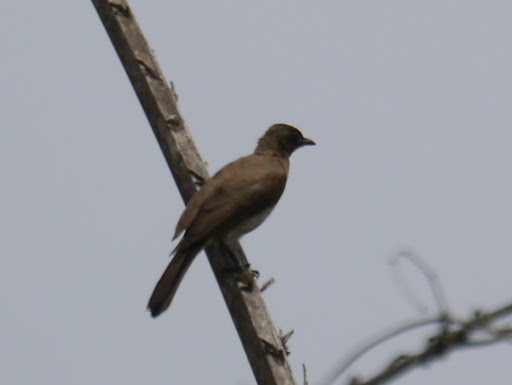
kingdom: Animalia
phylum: Chordata
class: Aves
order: Passeriformes
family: Pycnonotidae
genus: Pycnonotus
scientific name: Pycnonotus barbatus
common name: Common bulbul
